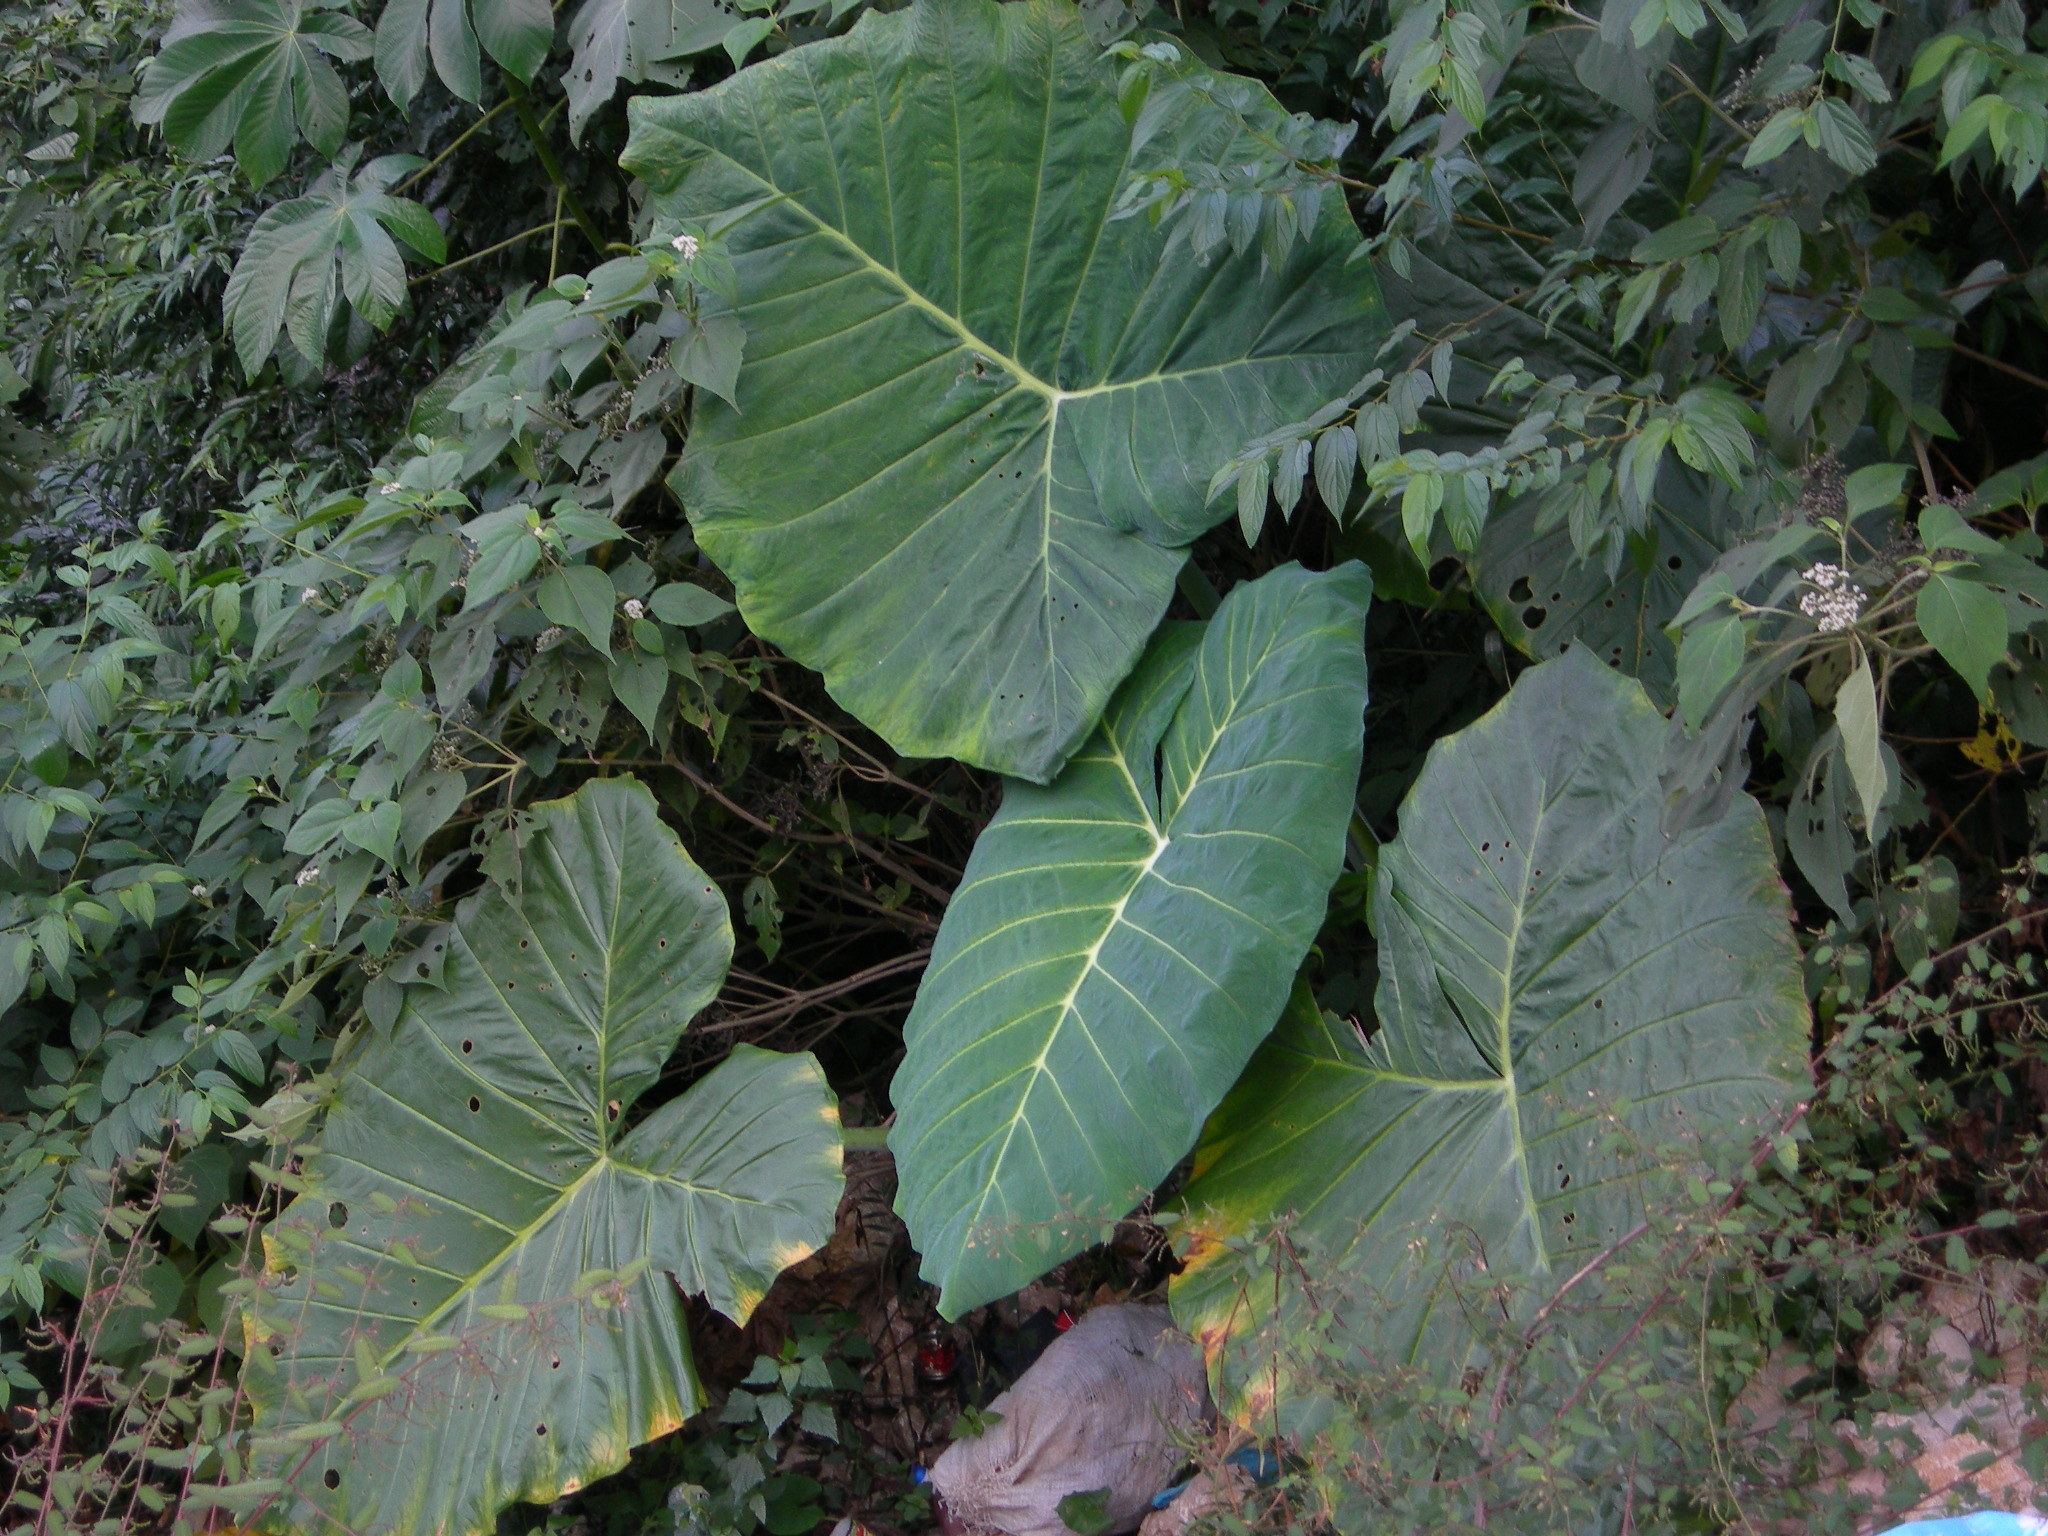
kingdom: Plantae
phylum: Tracheophyta
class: Liliopsida
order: Alismatales
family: Araceae
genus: Colocasia
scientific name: Colocasia esculenta
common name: Taro
